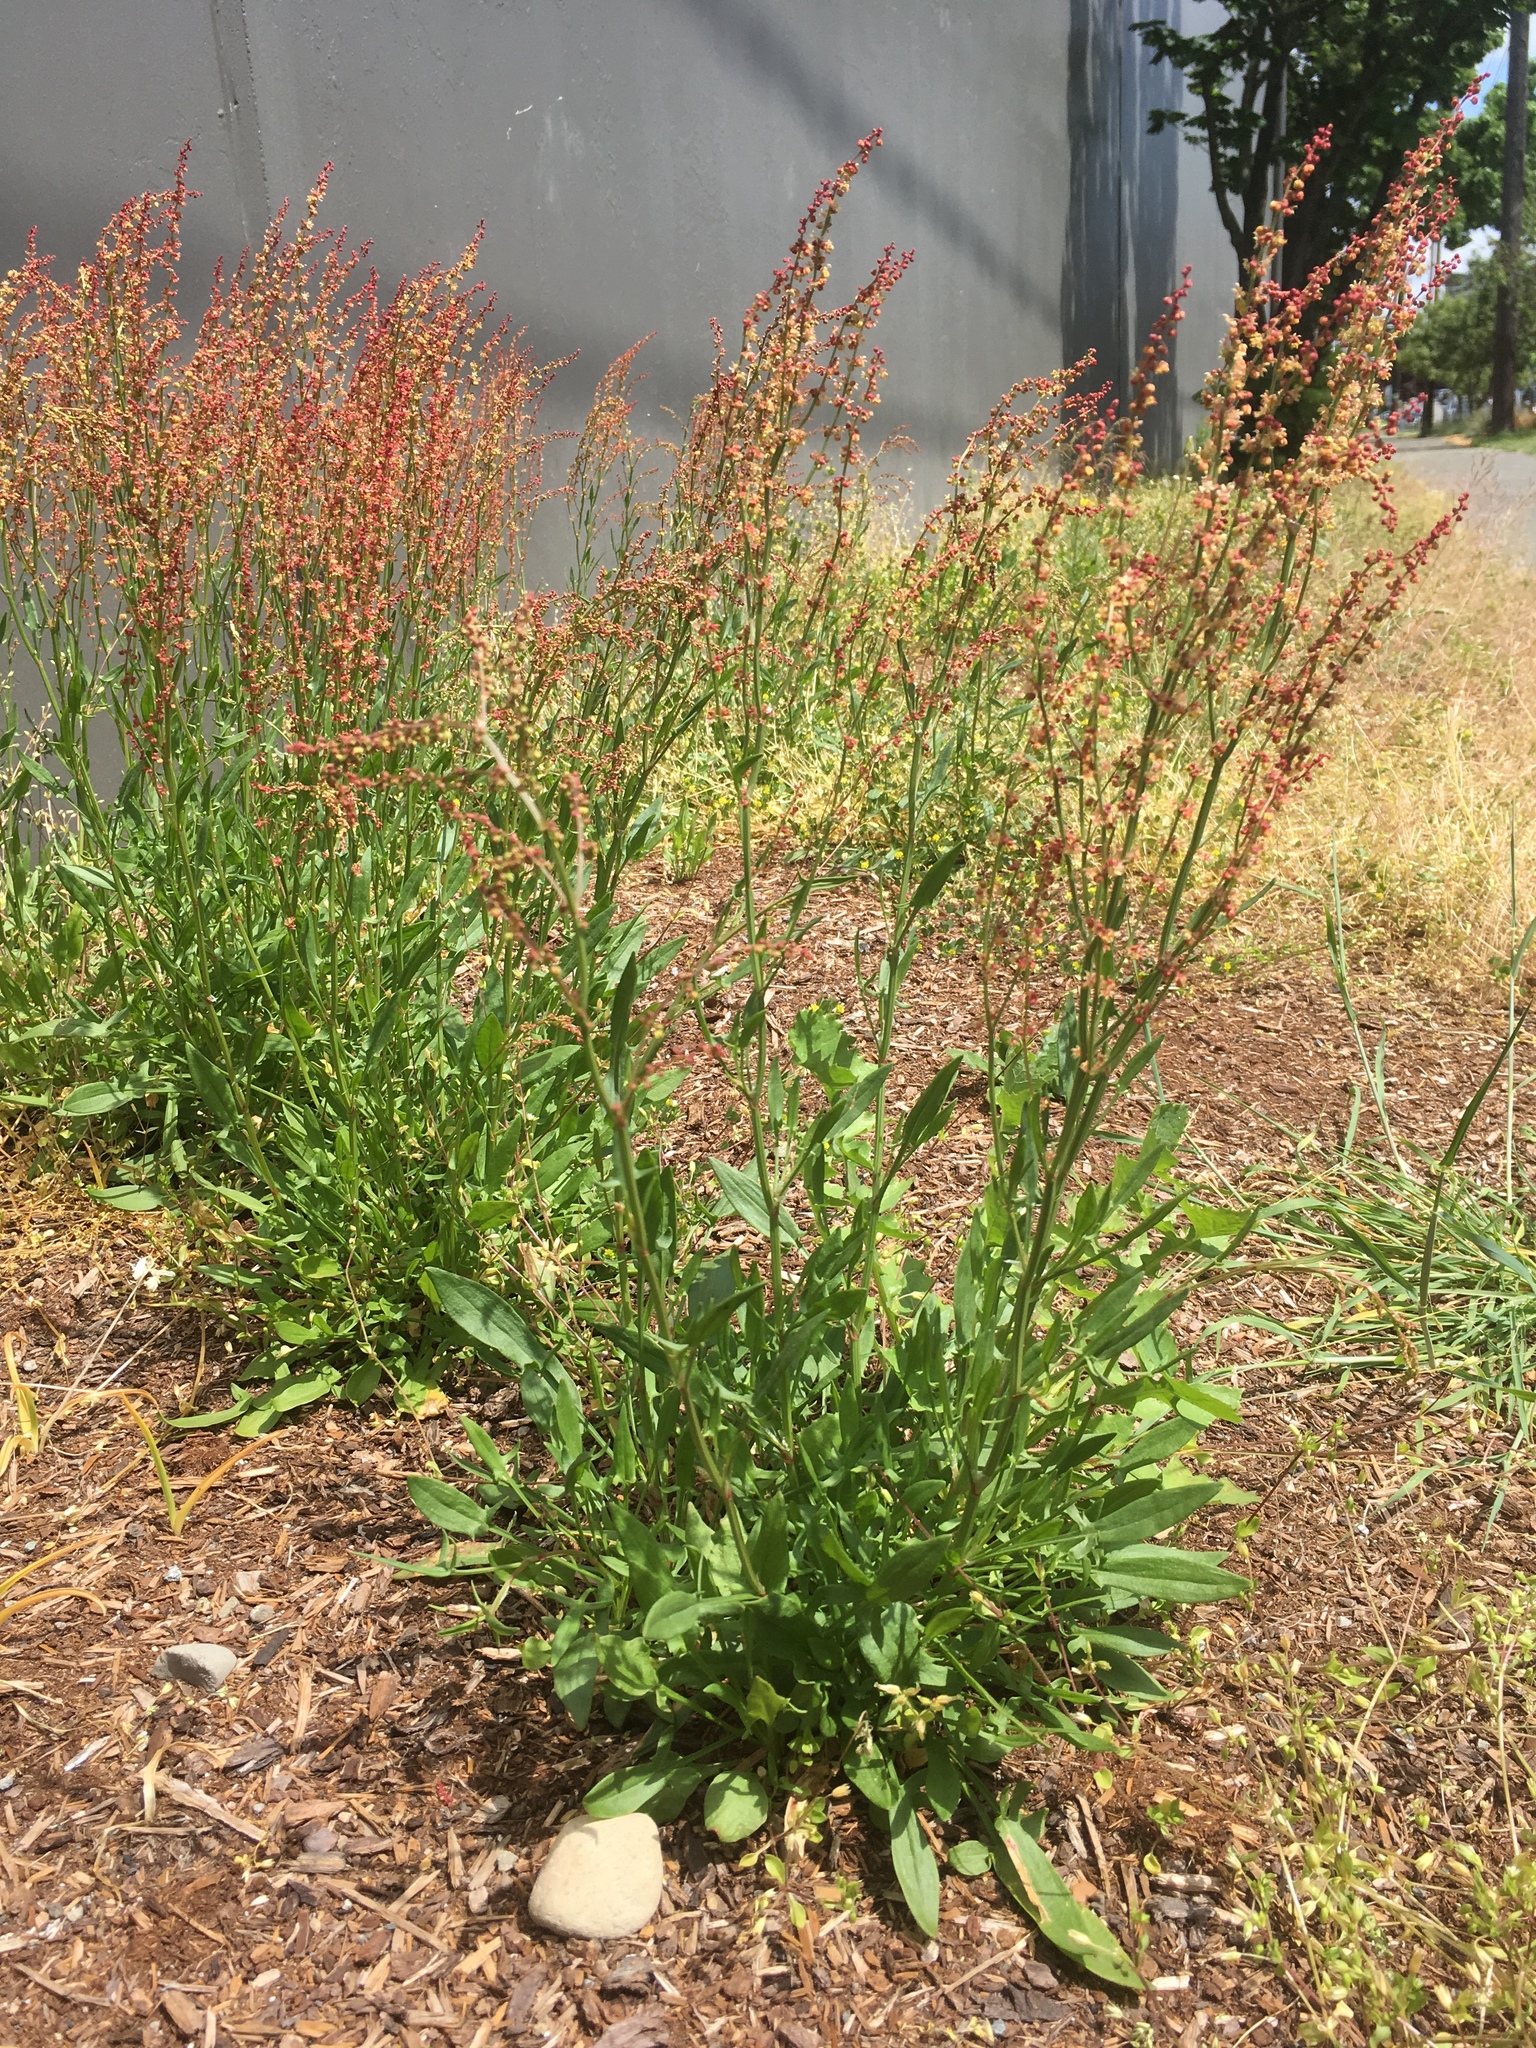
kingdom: Plantae
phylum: Tracheophyta
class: Magnoliopsida
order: Caryophyllales
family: Polygonaceae
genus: Rumex
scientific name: Rumex acetosella
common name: Common sheep sorrel
